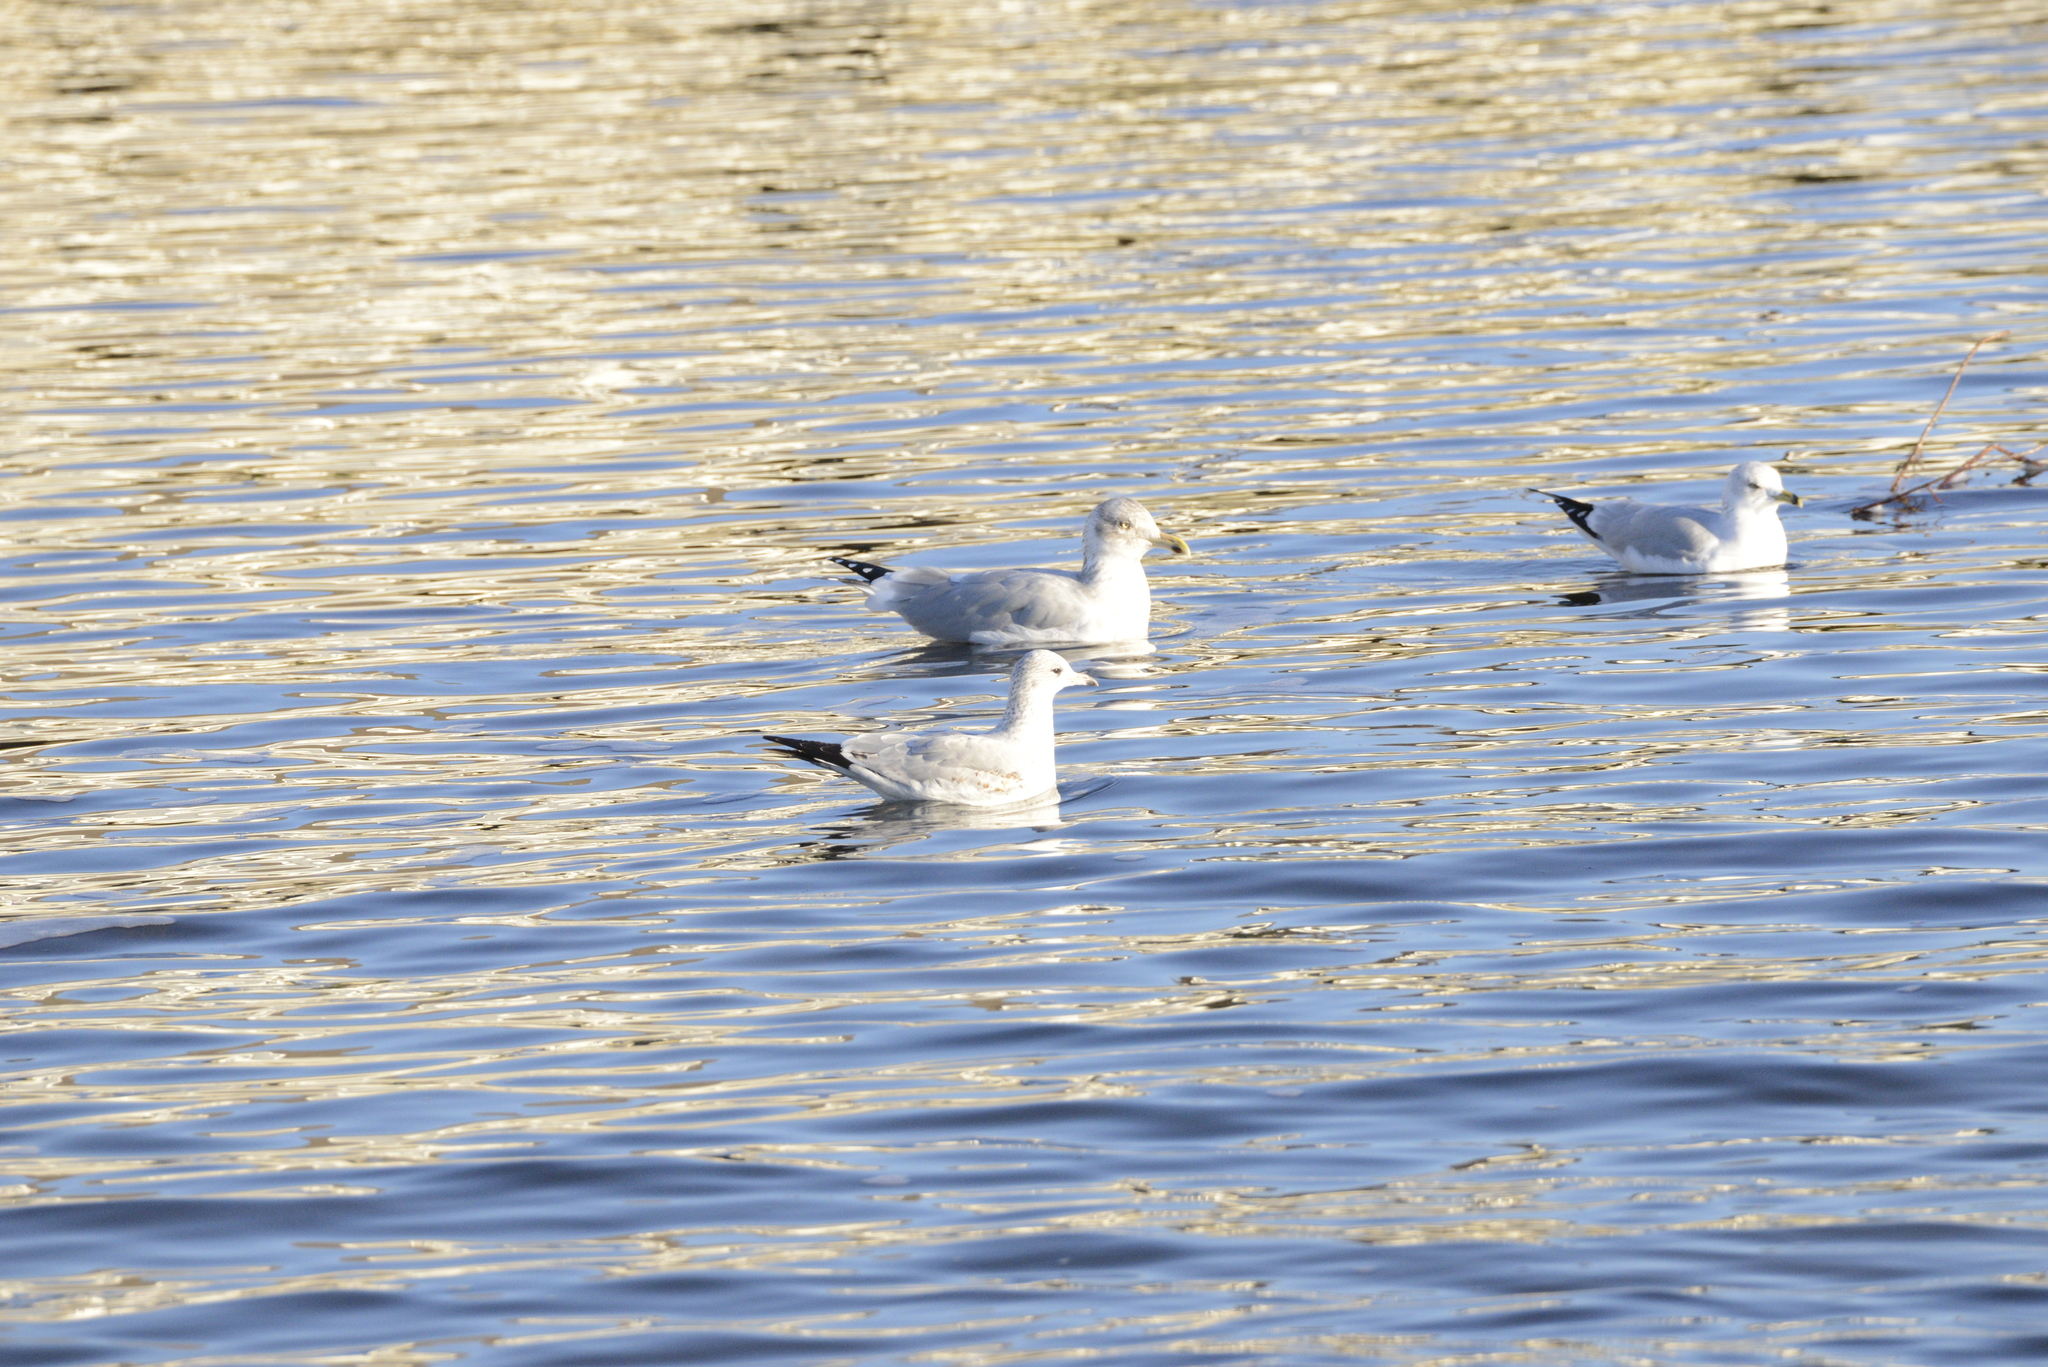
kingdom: Animalia
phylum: Chordata
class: Aves
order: Charadriiformes
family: Laridae
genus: Larus
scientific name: Larus argentatus
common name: Herring gull
